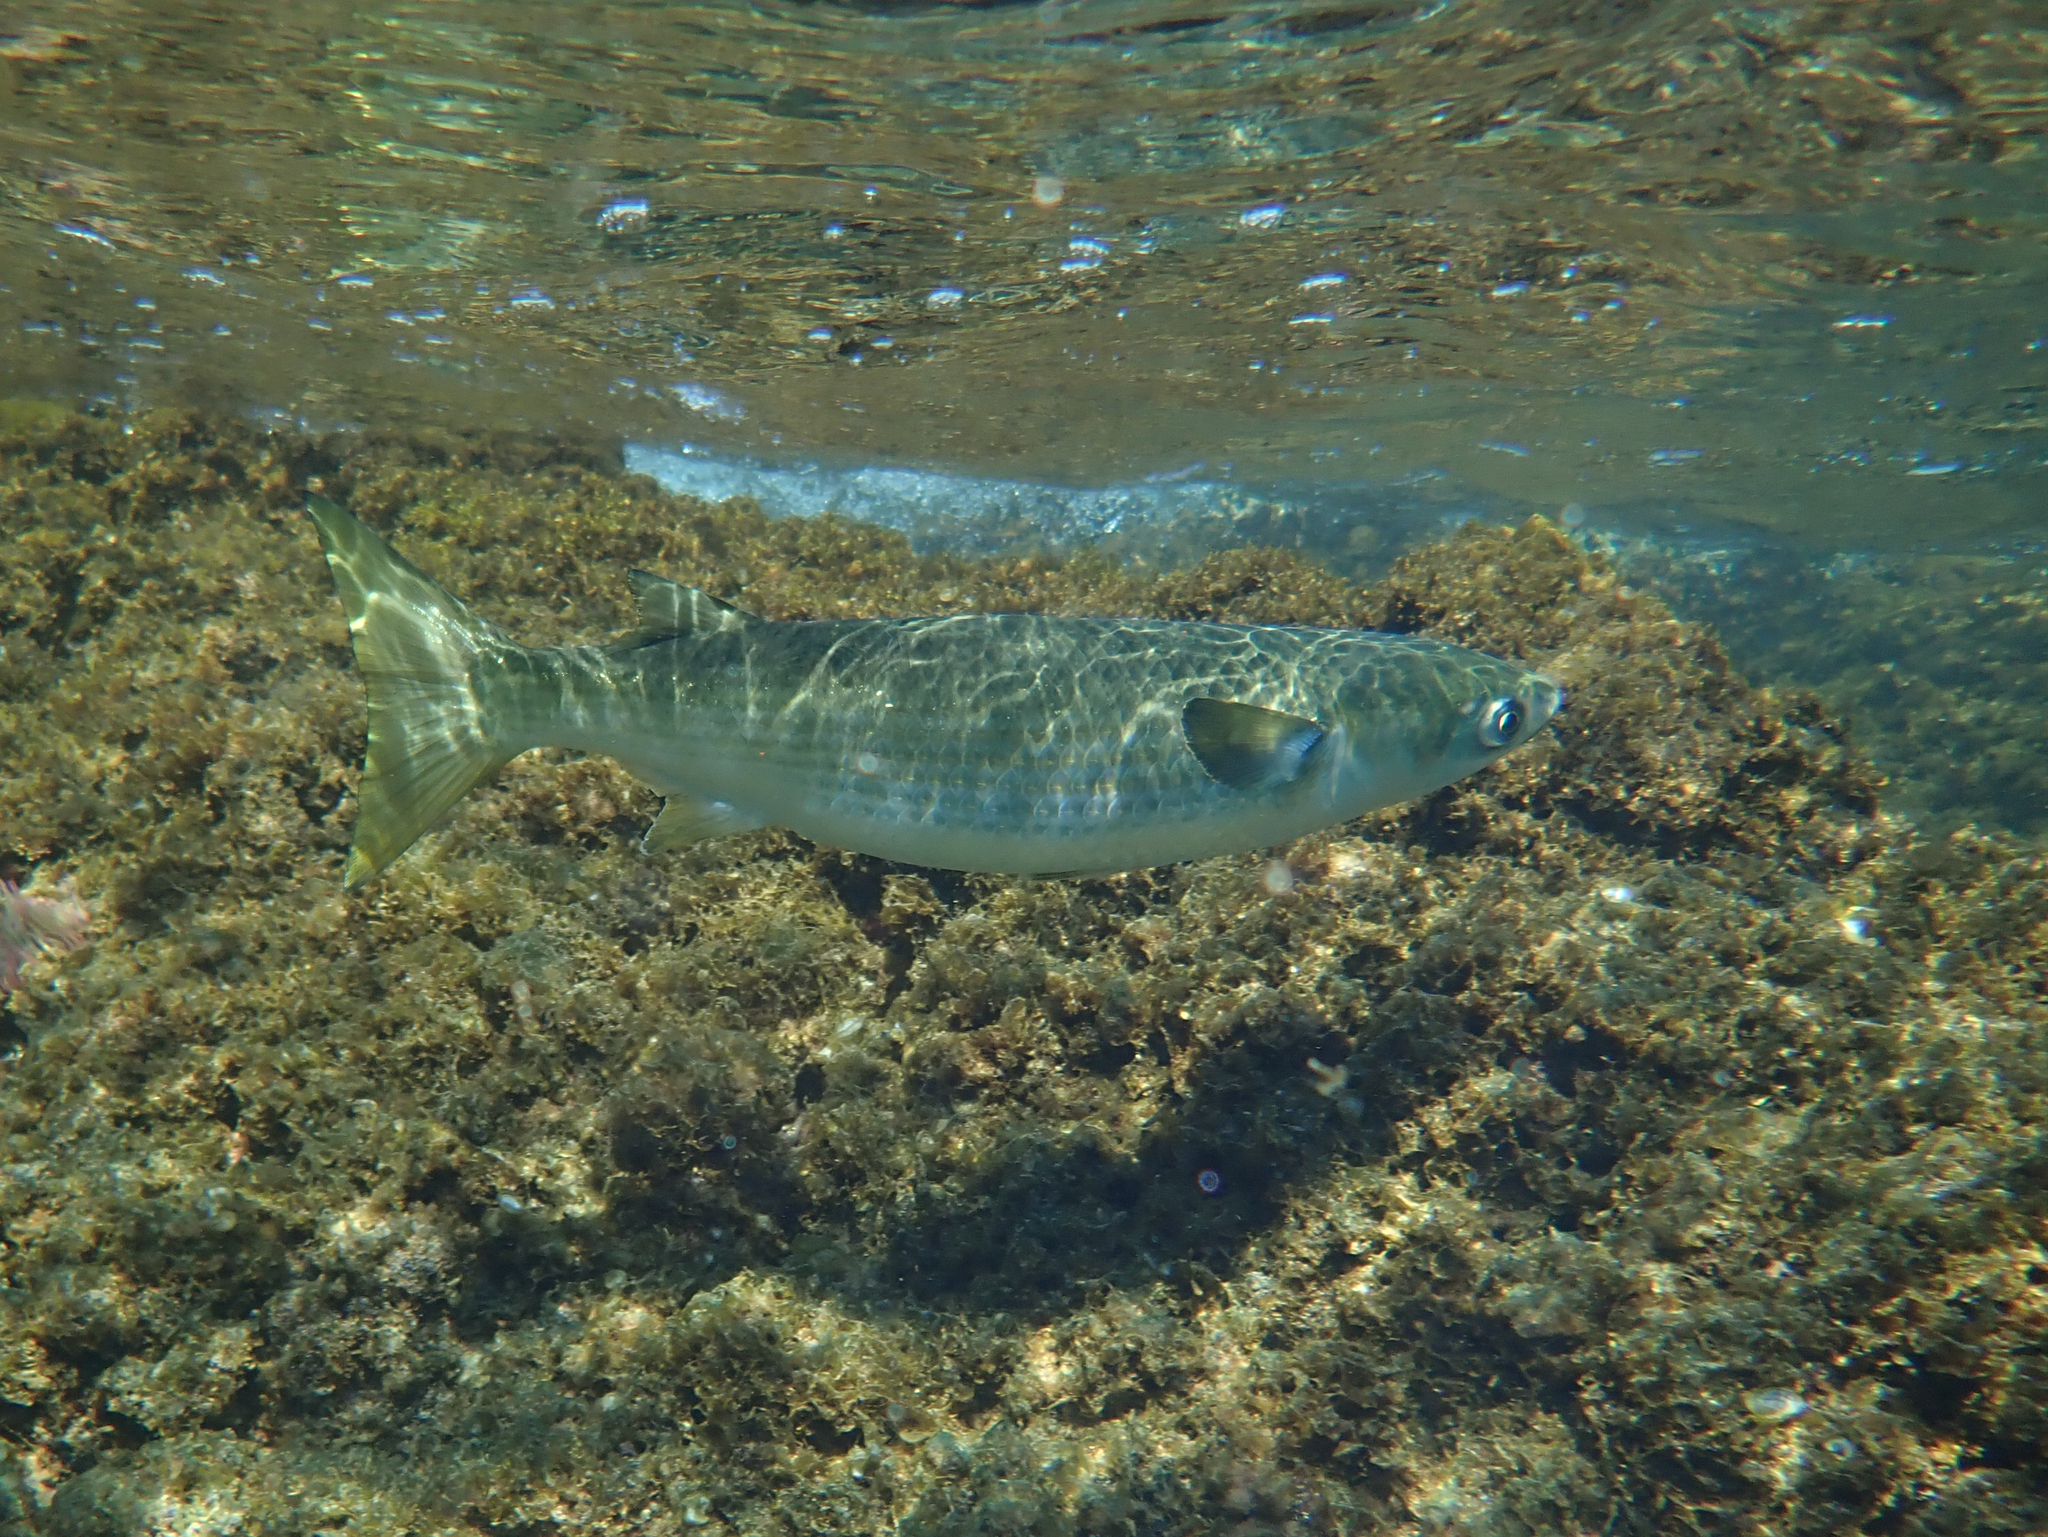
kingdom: Animalia
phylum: Chordata
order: Mugiliformes
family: Mugilidae
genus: Mugil
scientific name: Mugil cephalus
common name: Grey mullet
